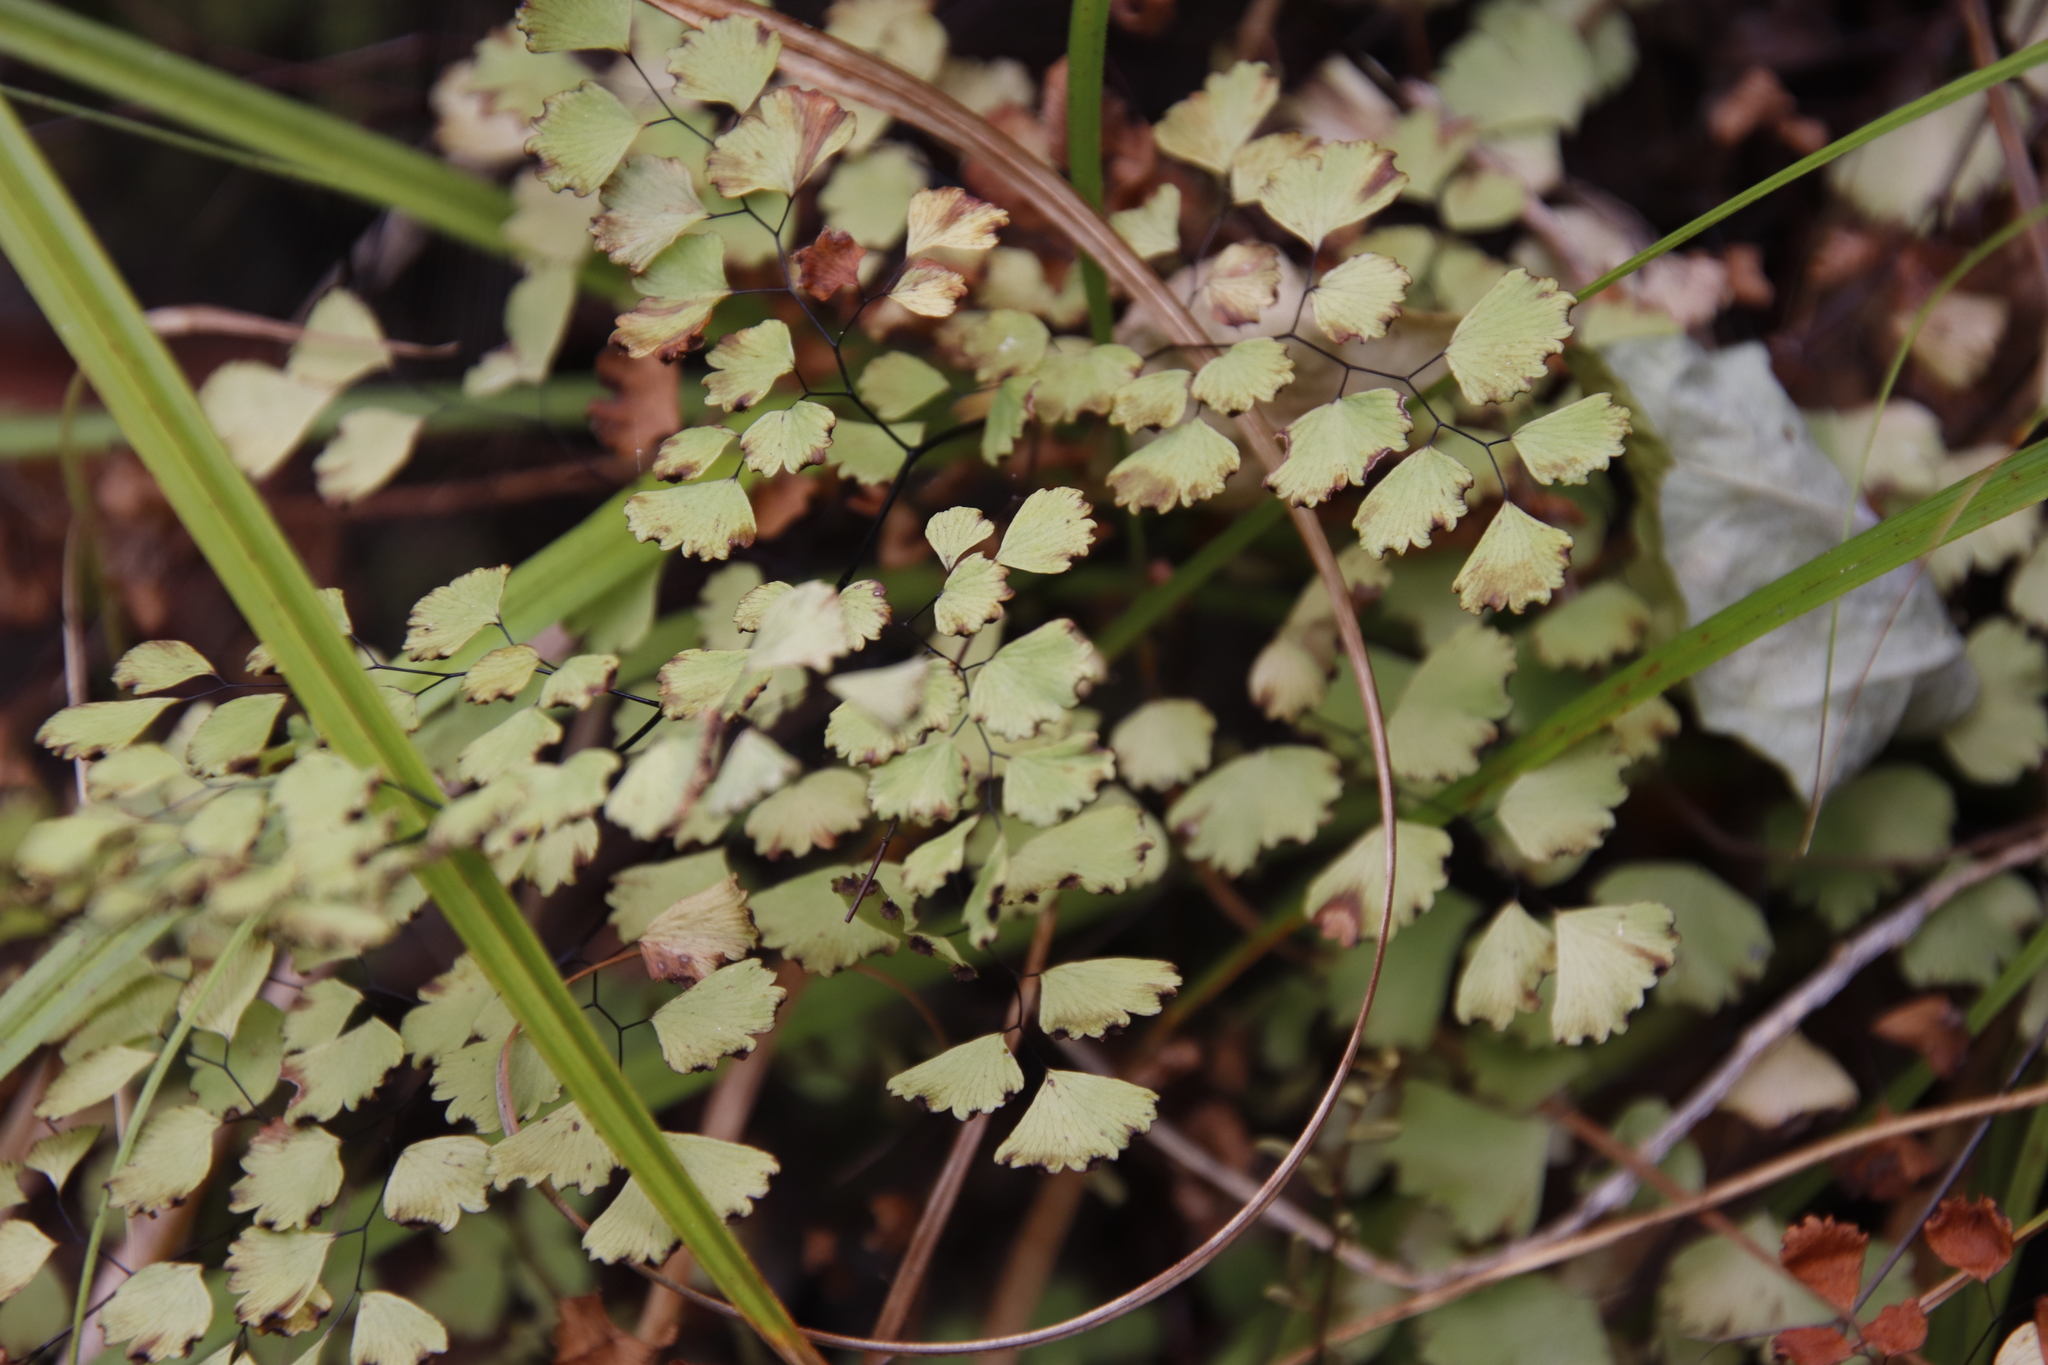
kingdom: Plantae
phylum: Tracheophyta
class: Polypodiopsida
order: Polypodiales
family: Pteridaceae
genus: Adiantum
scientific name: Adiantum aethiopicum
